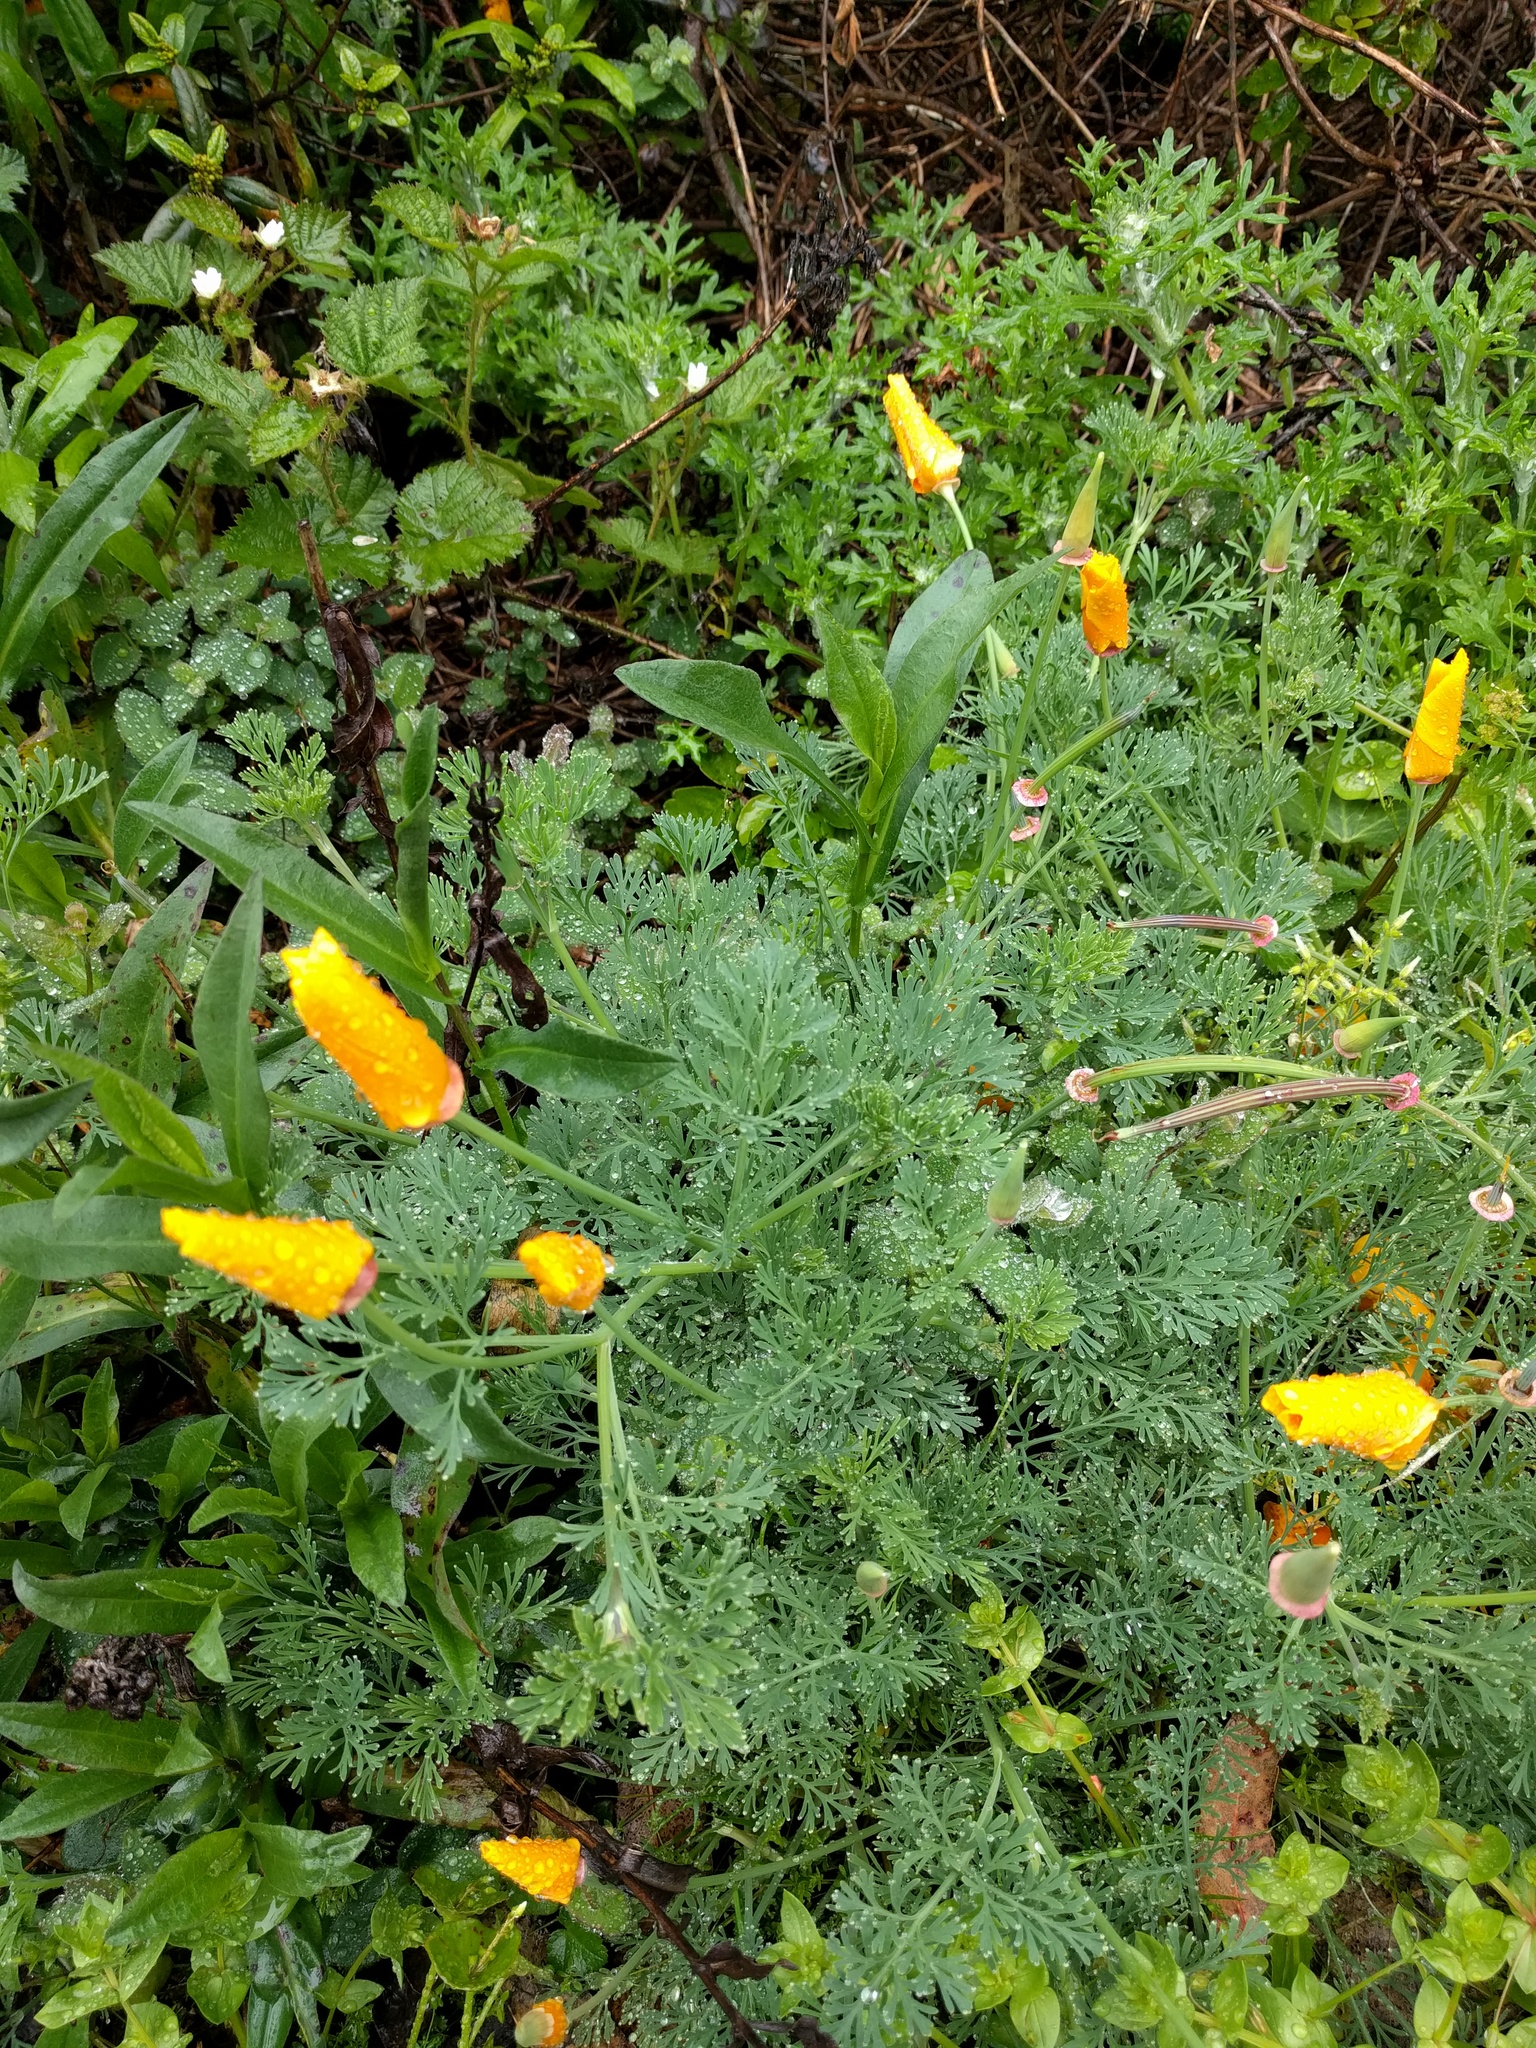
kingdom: Plantae
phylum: Tracheophyta
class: Magnoliopsida
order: Ranunculales
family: Papaveraceae
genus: Eschscholzia
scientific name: Eschscholzia californica
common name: California poppy
